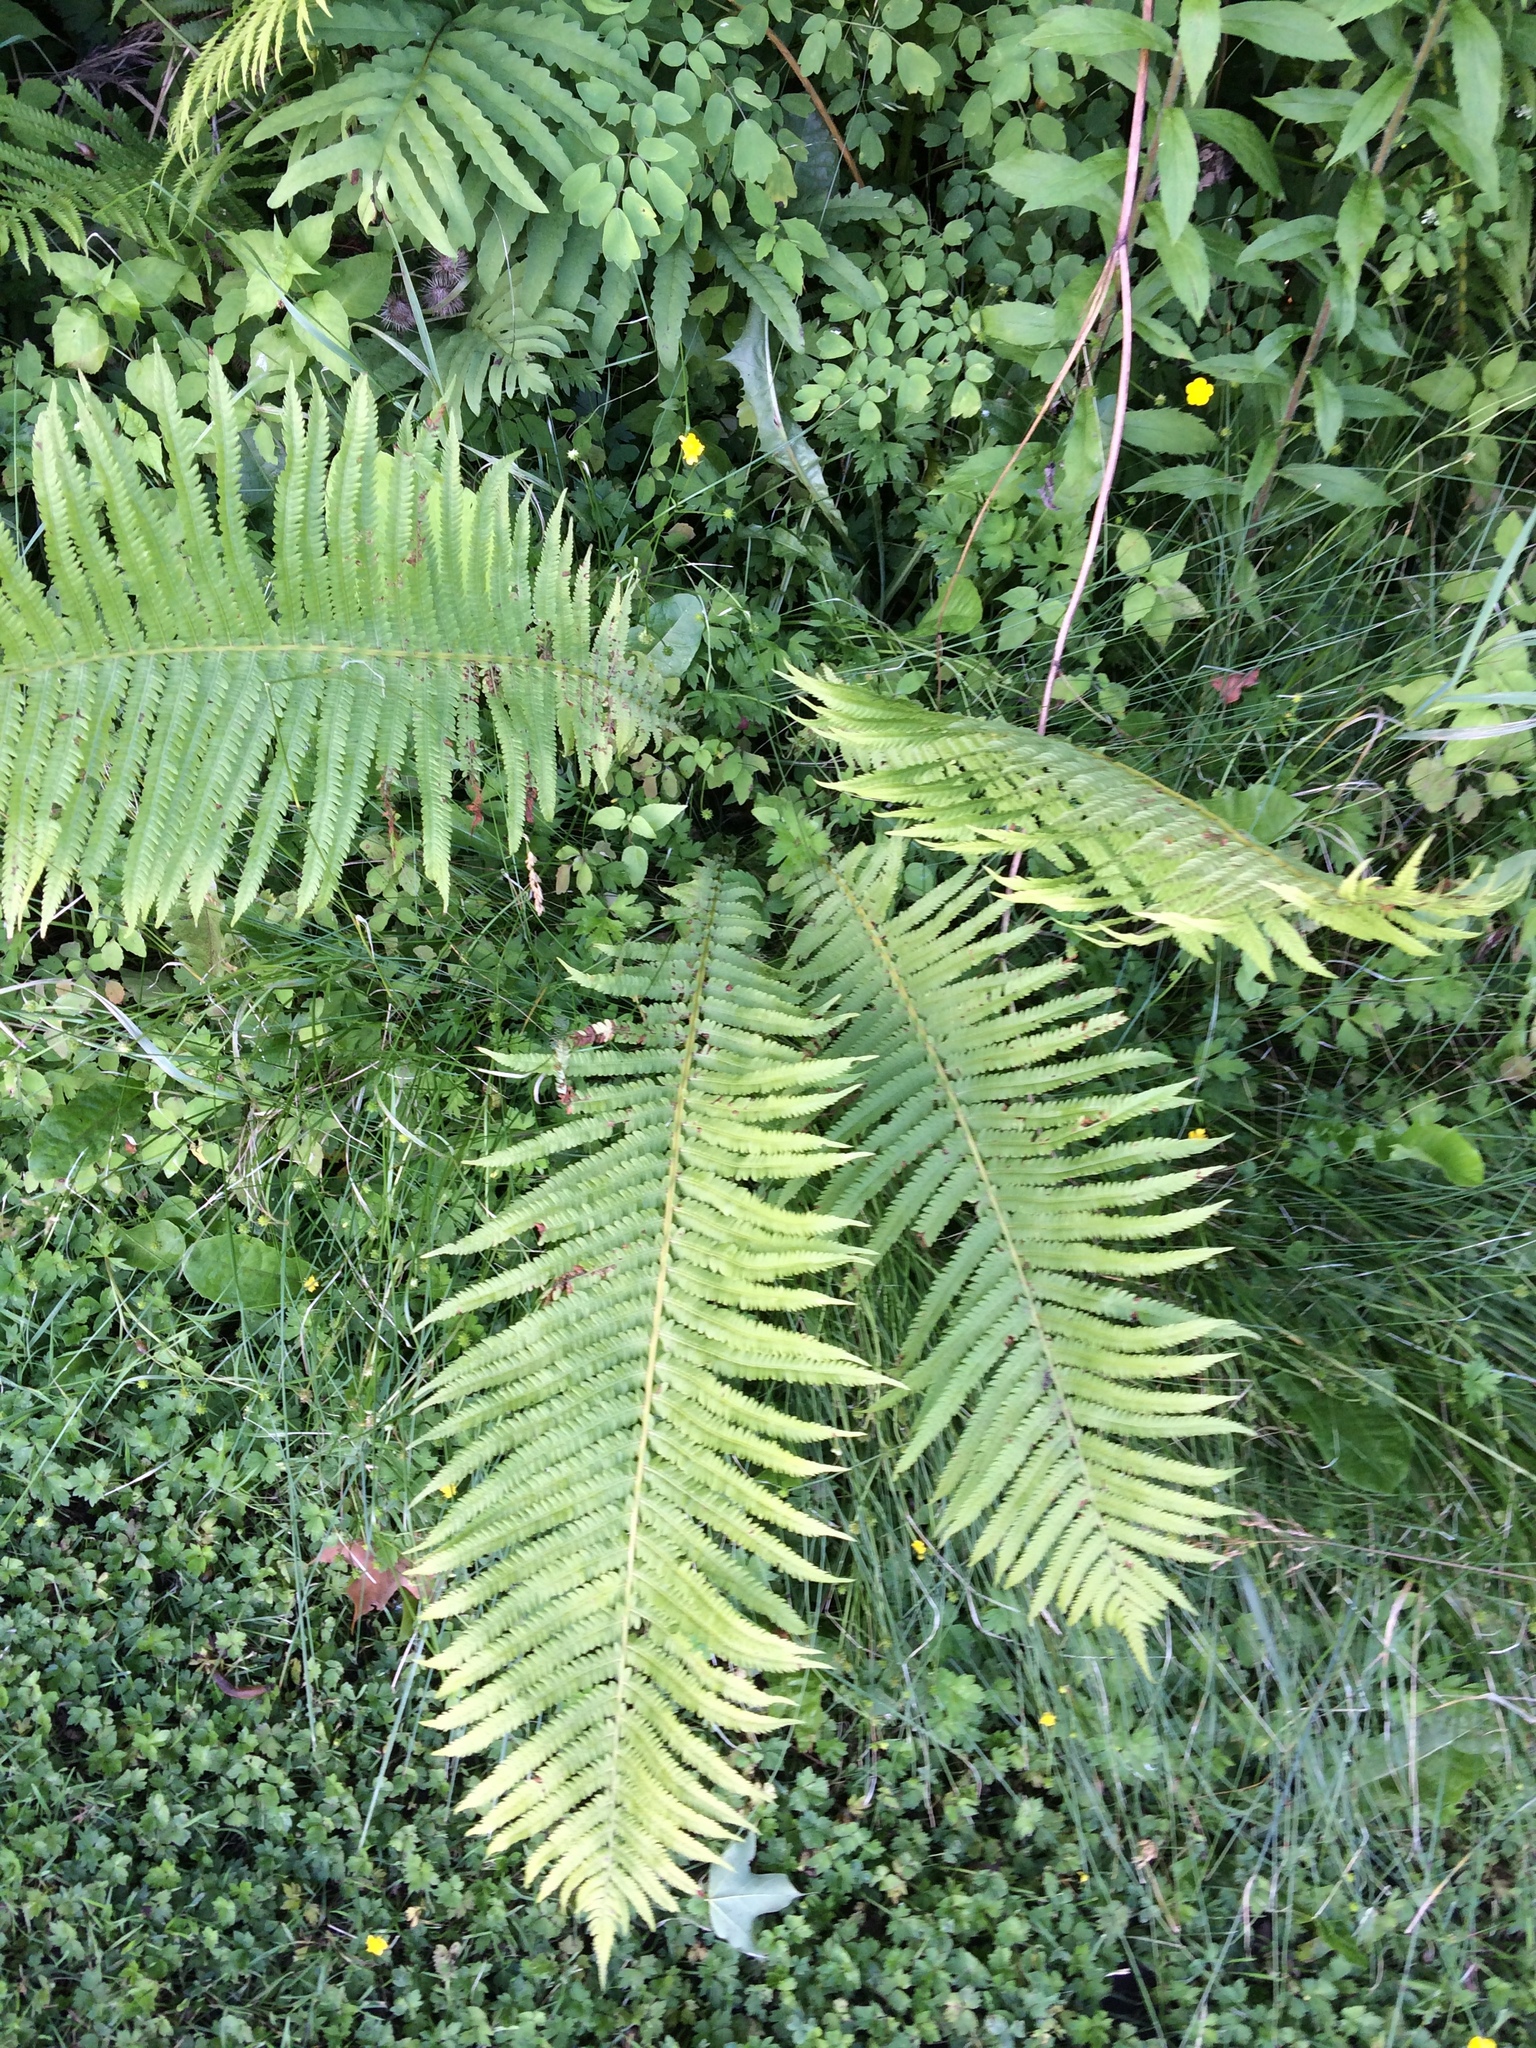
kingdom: Plantae
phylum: Tracheophyta
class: Polypodiopsida
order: Polypodiales
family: Onocleaceae
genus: Matteuccia
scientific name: Matteuccia struthiopteris
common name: Ostrich fern
